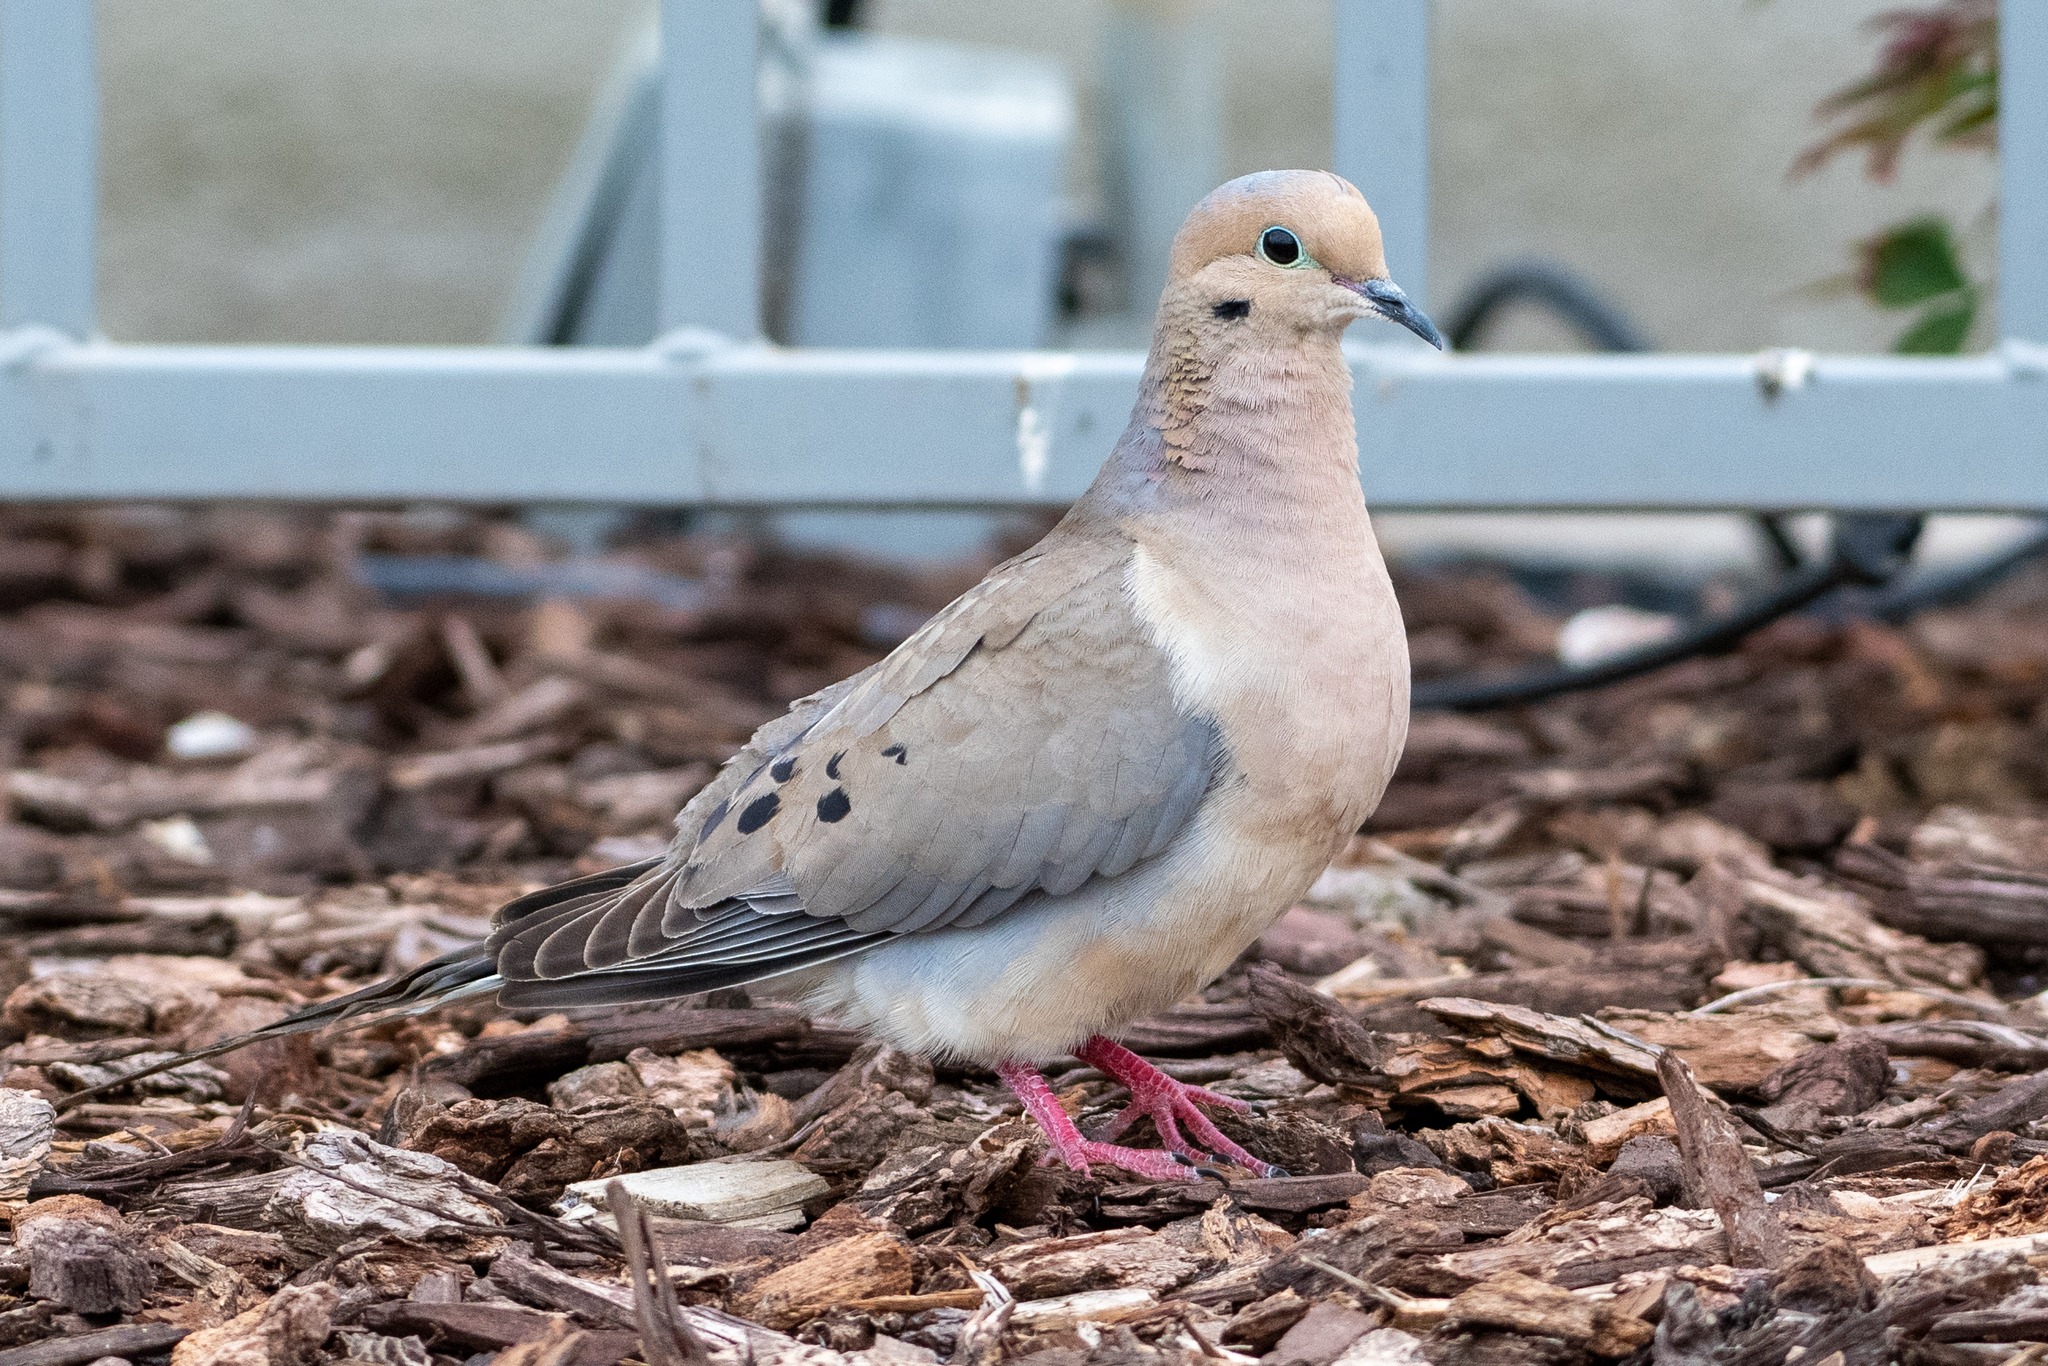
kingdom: Animalia
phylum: Chordata
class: Aves
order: Columbiformes
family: Columbidae
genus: Zenaida
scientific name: Zenaida macroura
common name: Mourning dove
